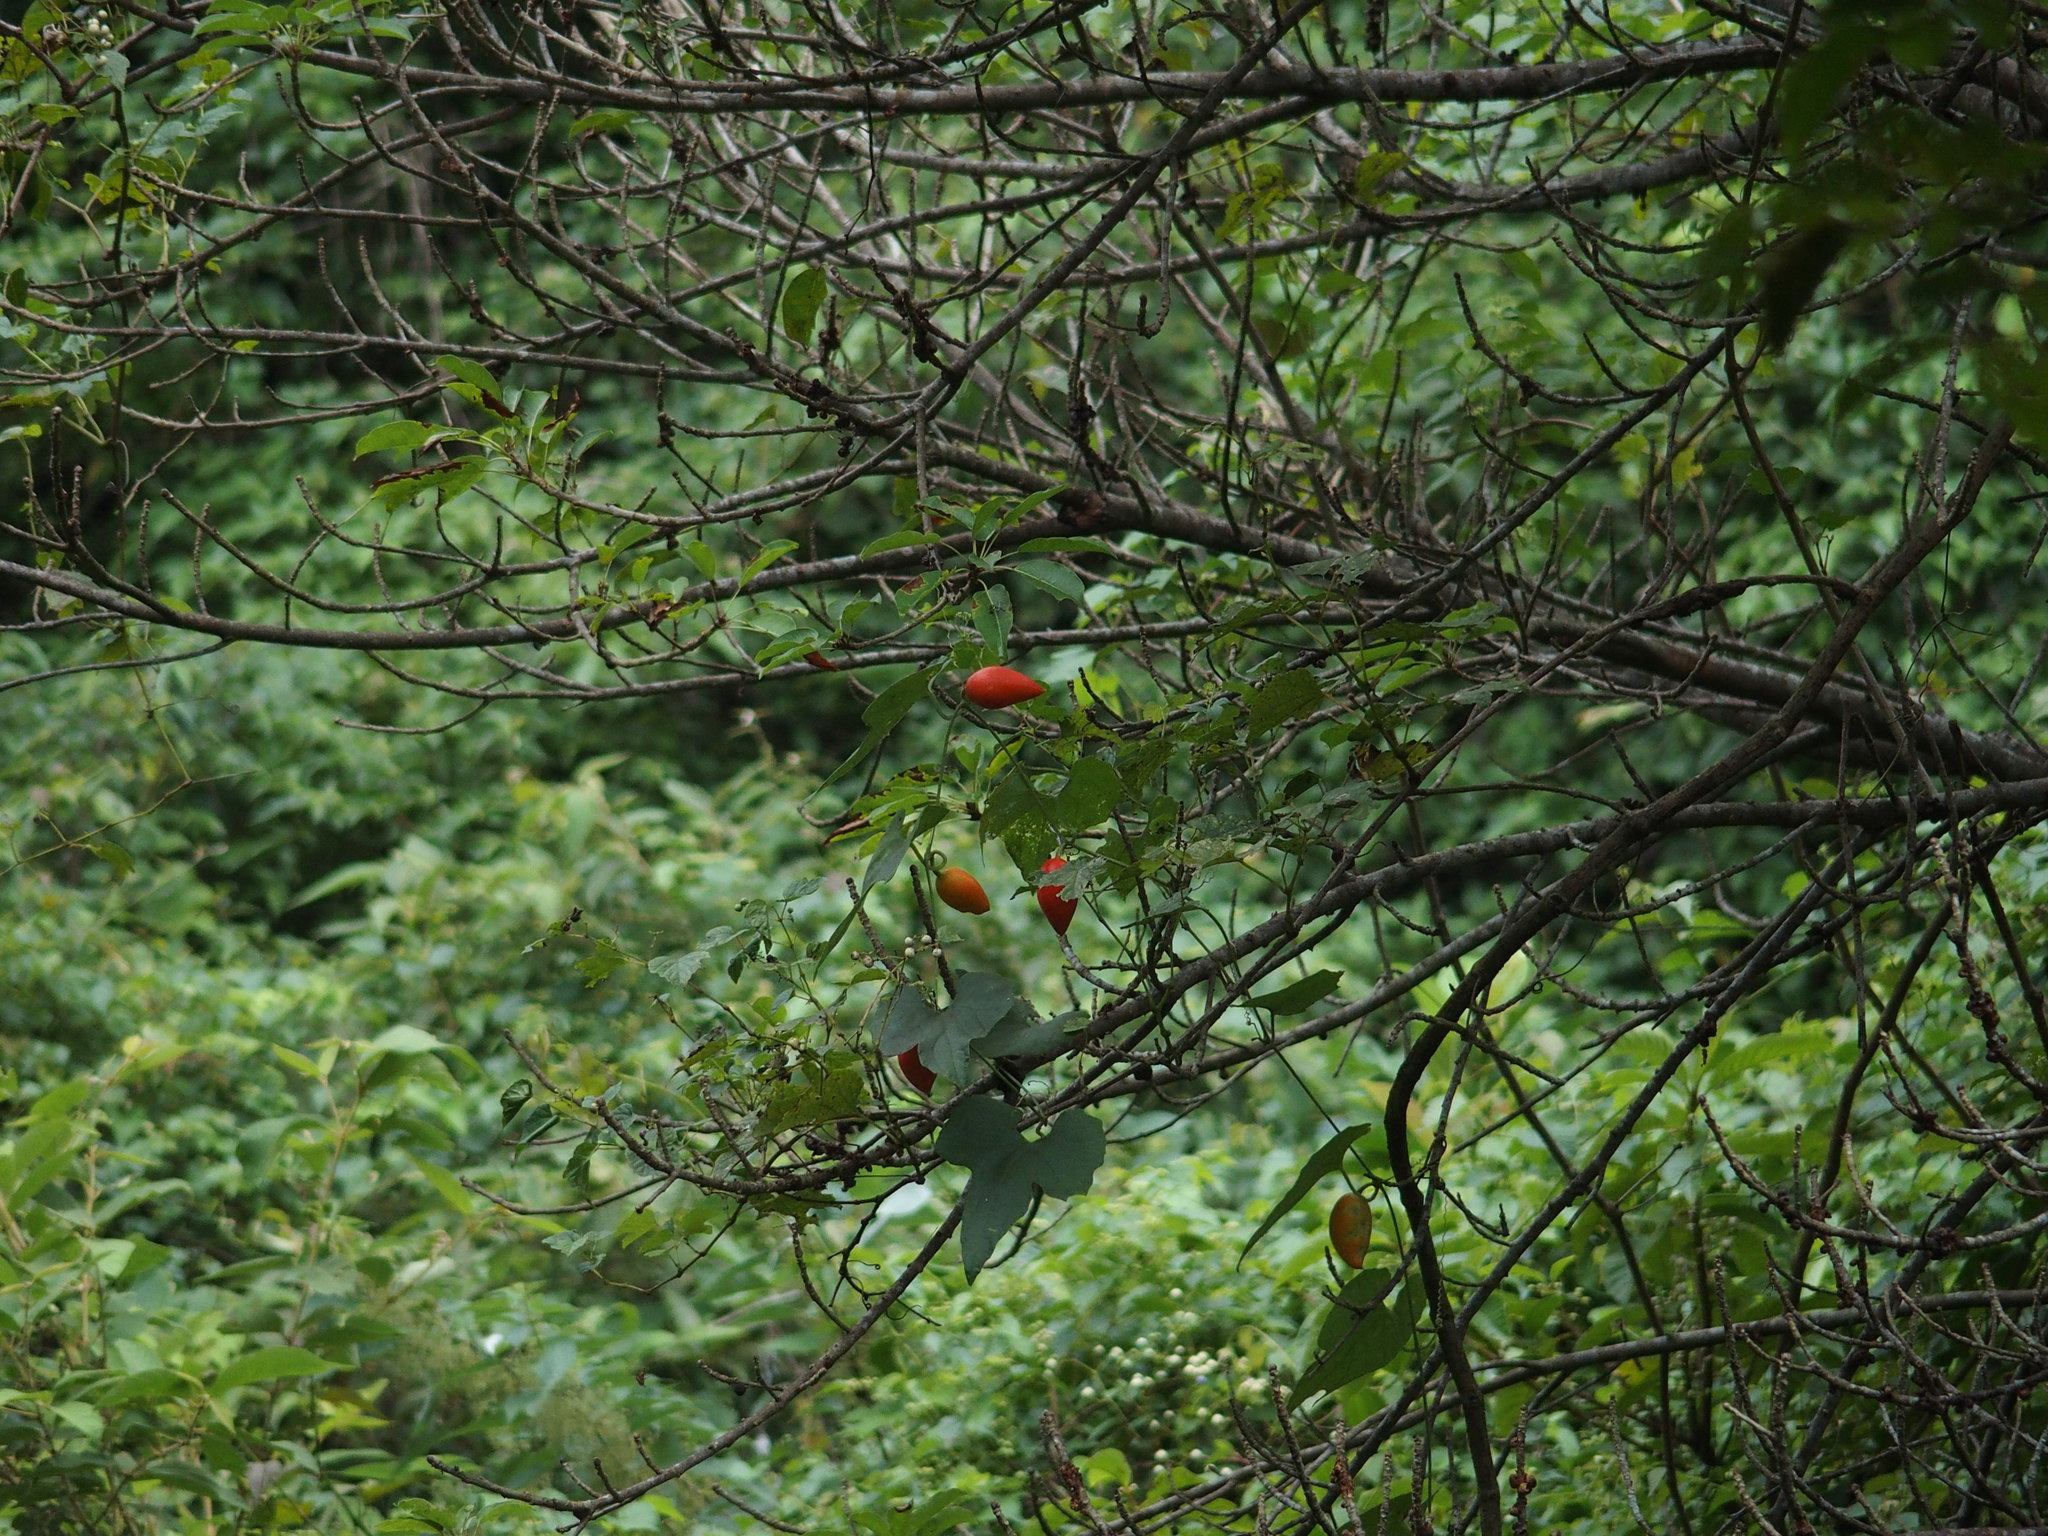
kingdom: Plantae
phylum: Tracheophyta
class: Magnoliopsida
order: Cucurbitales
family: Cucurbitaceae
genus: Coccinia
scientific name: Coccinia grandis
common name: Ivy gourd
